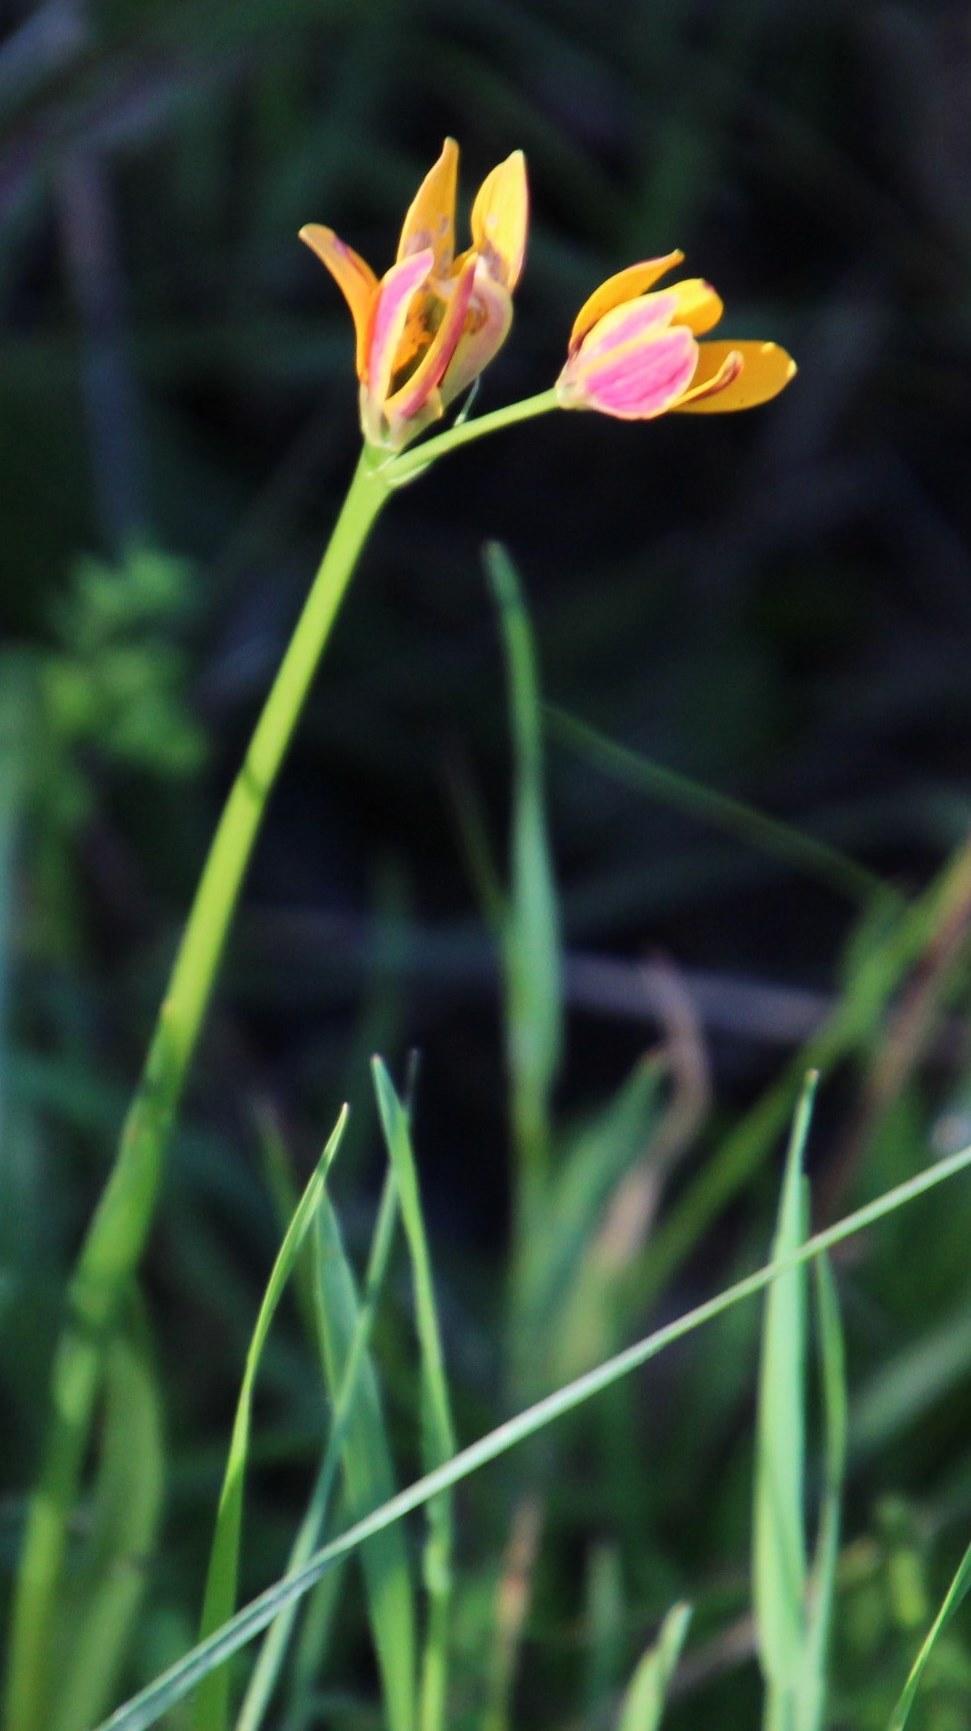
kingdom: Plantae
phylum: Tracheophyta
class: Liliopsida
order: Liliales
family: Colchicaceae
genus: Baeometra
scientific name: Baeometra uniflora
